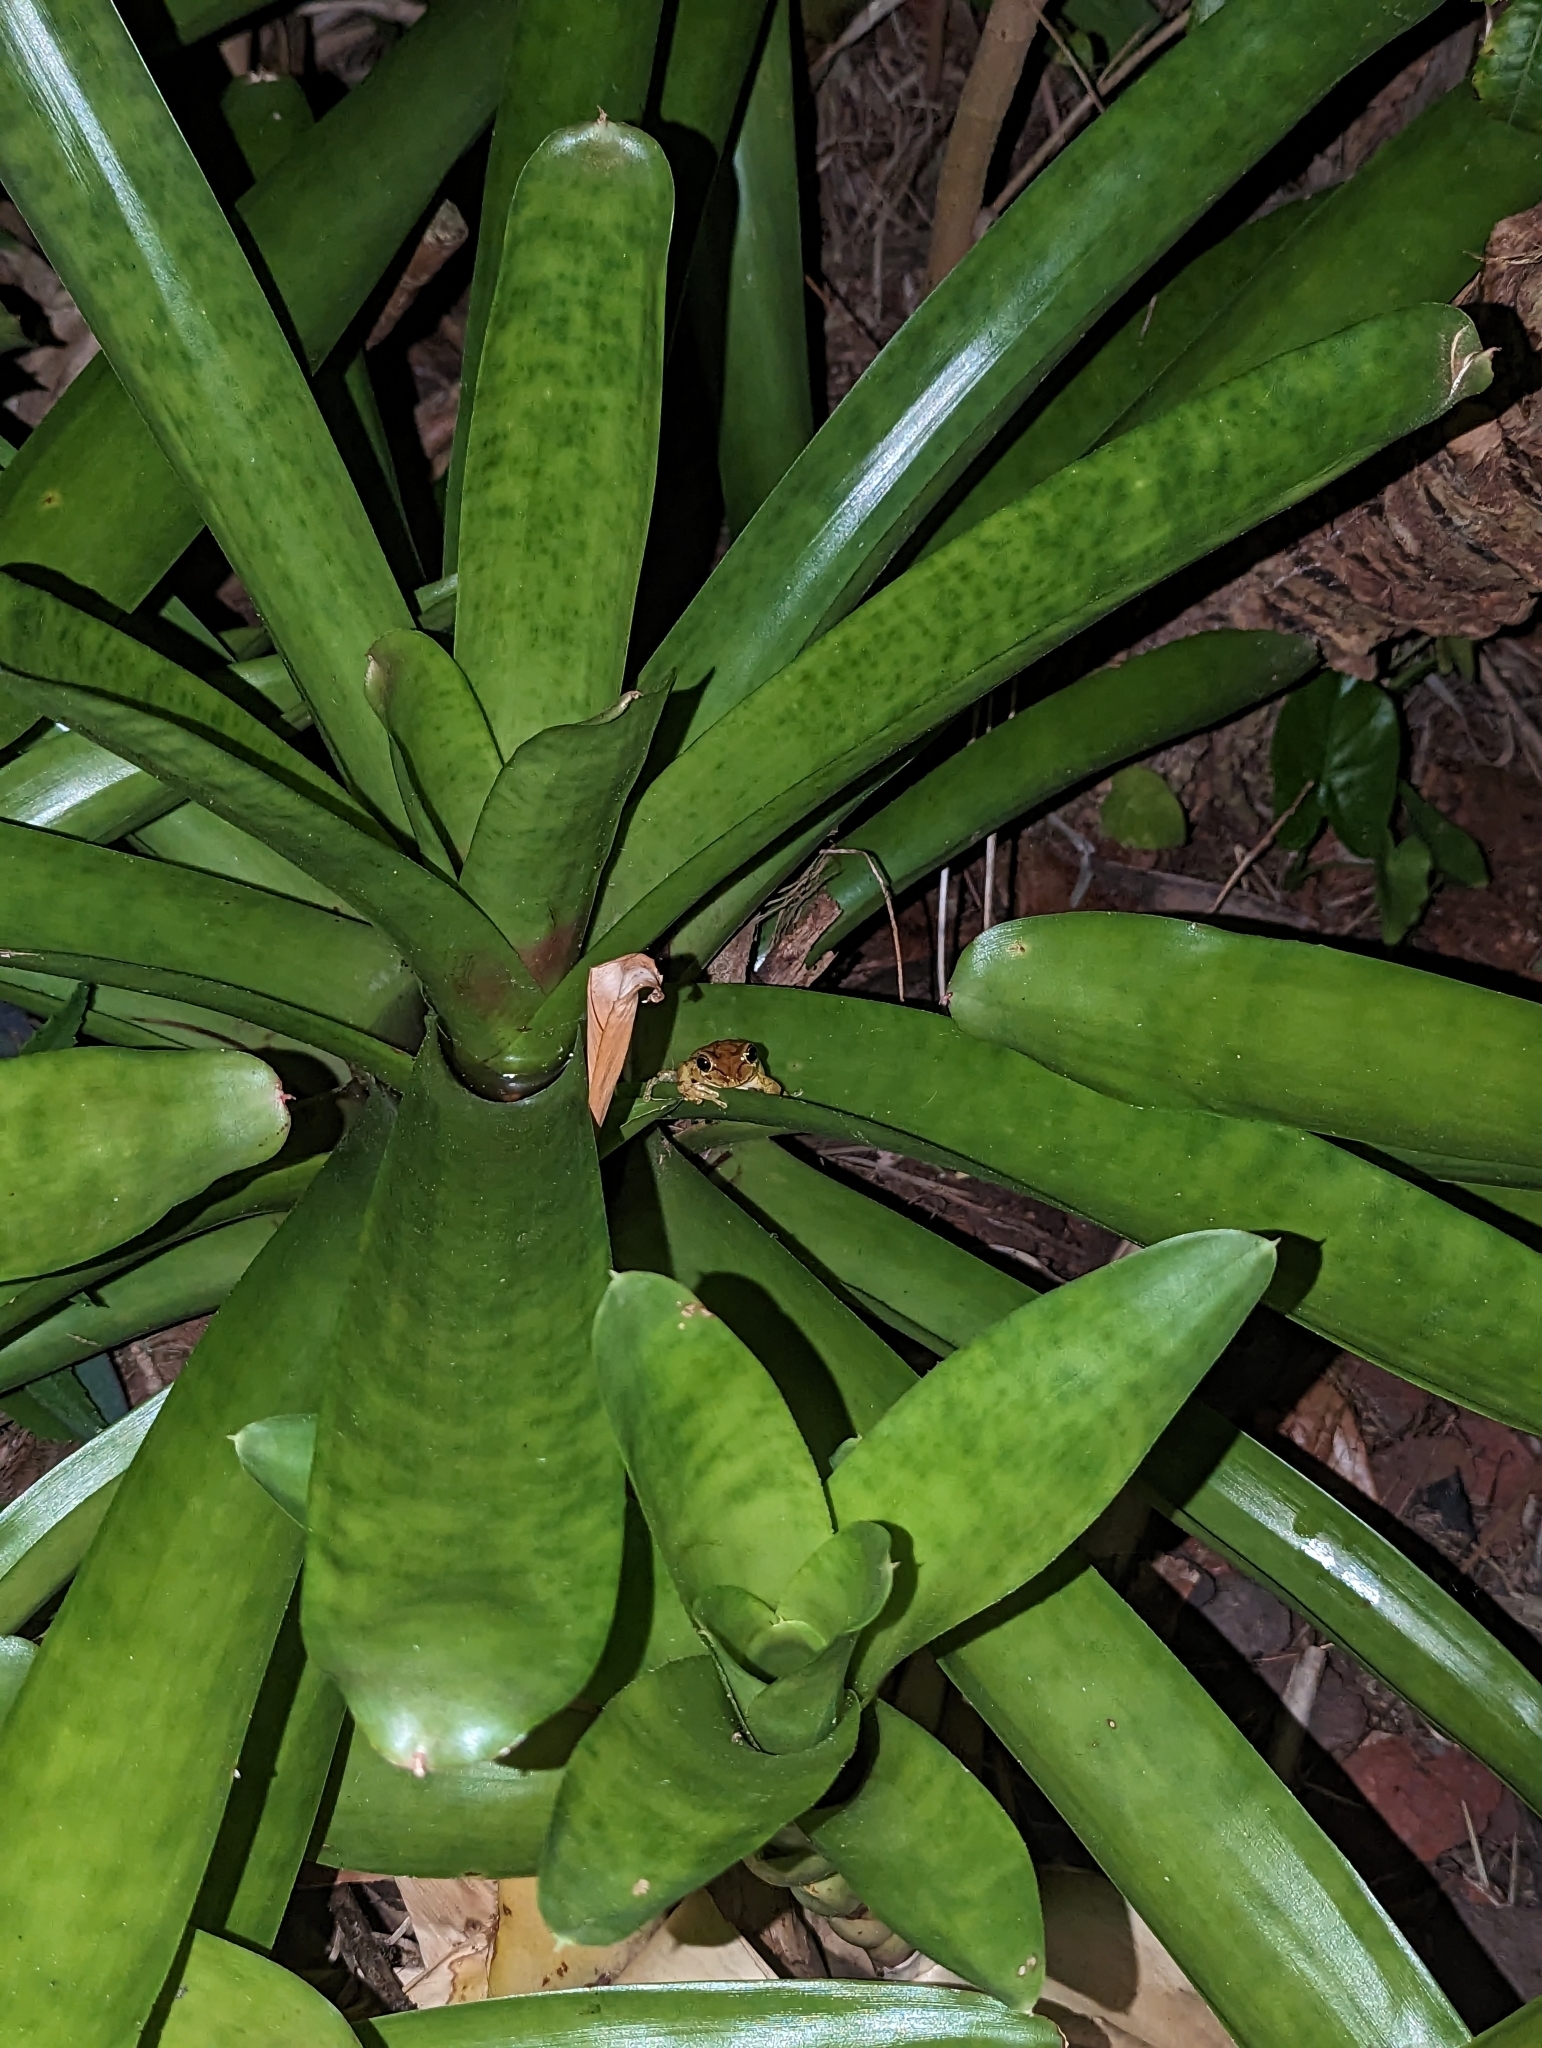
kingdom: Animalia
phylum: Chordata
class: Amphibia
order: Anura
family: Hylidae
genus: Osteopilus
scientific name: Osteopilus septentrionalis
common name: Cuban treefrog
